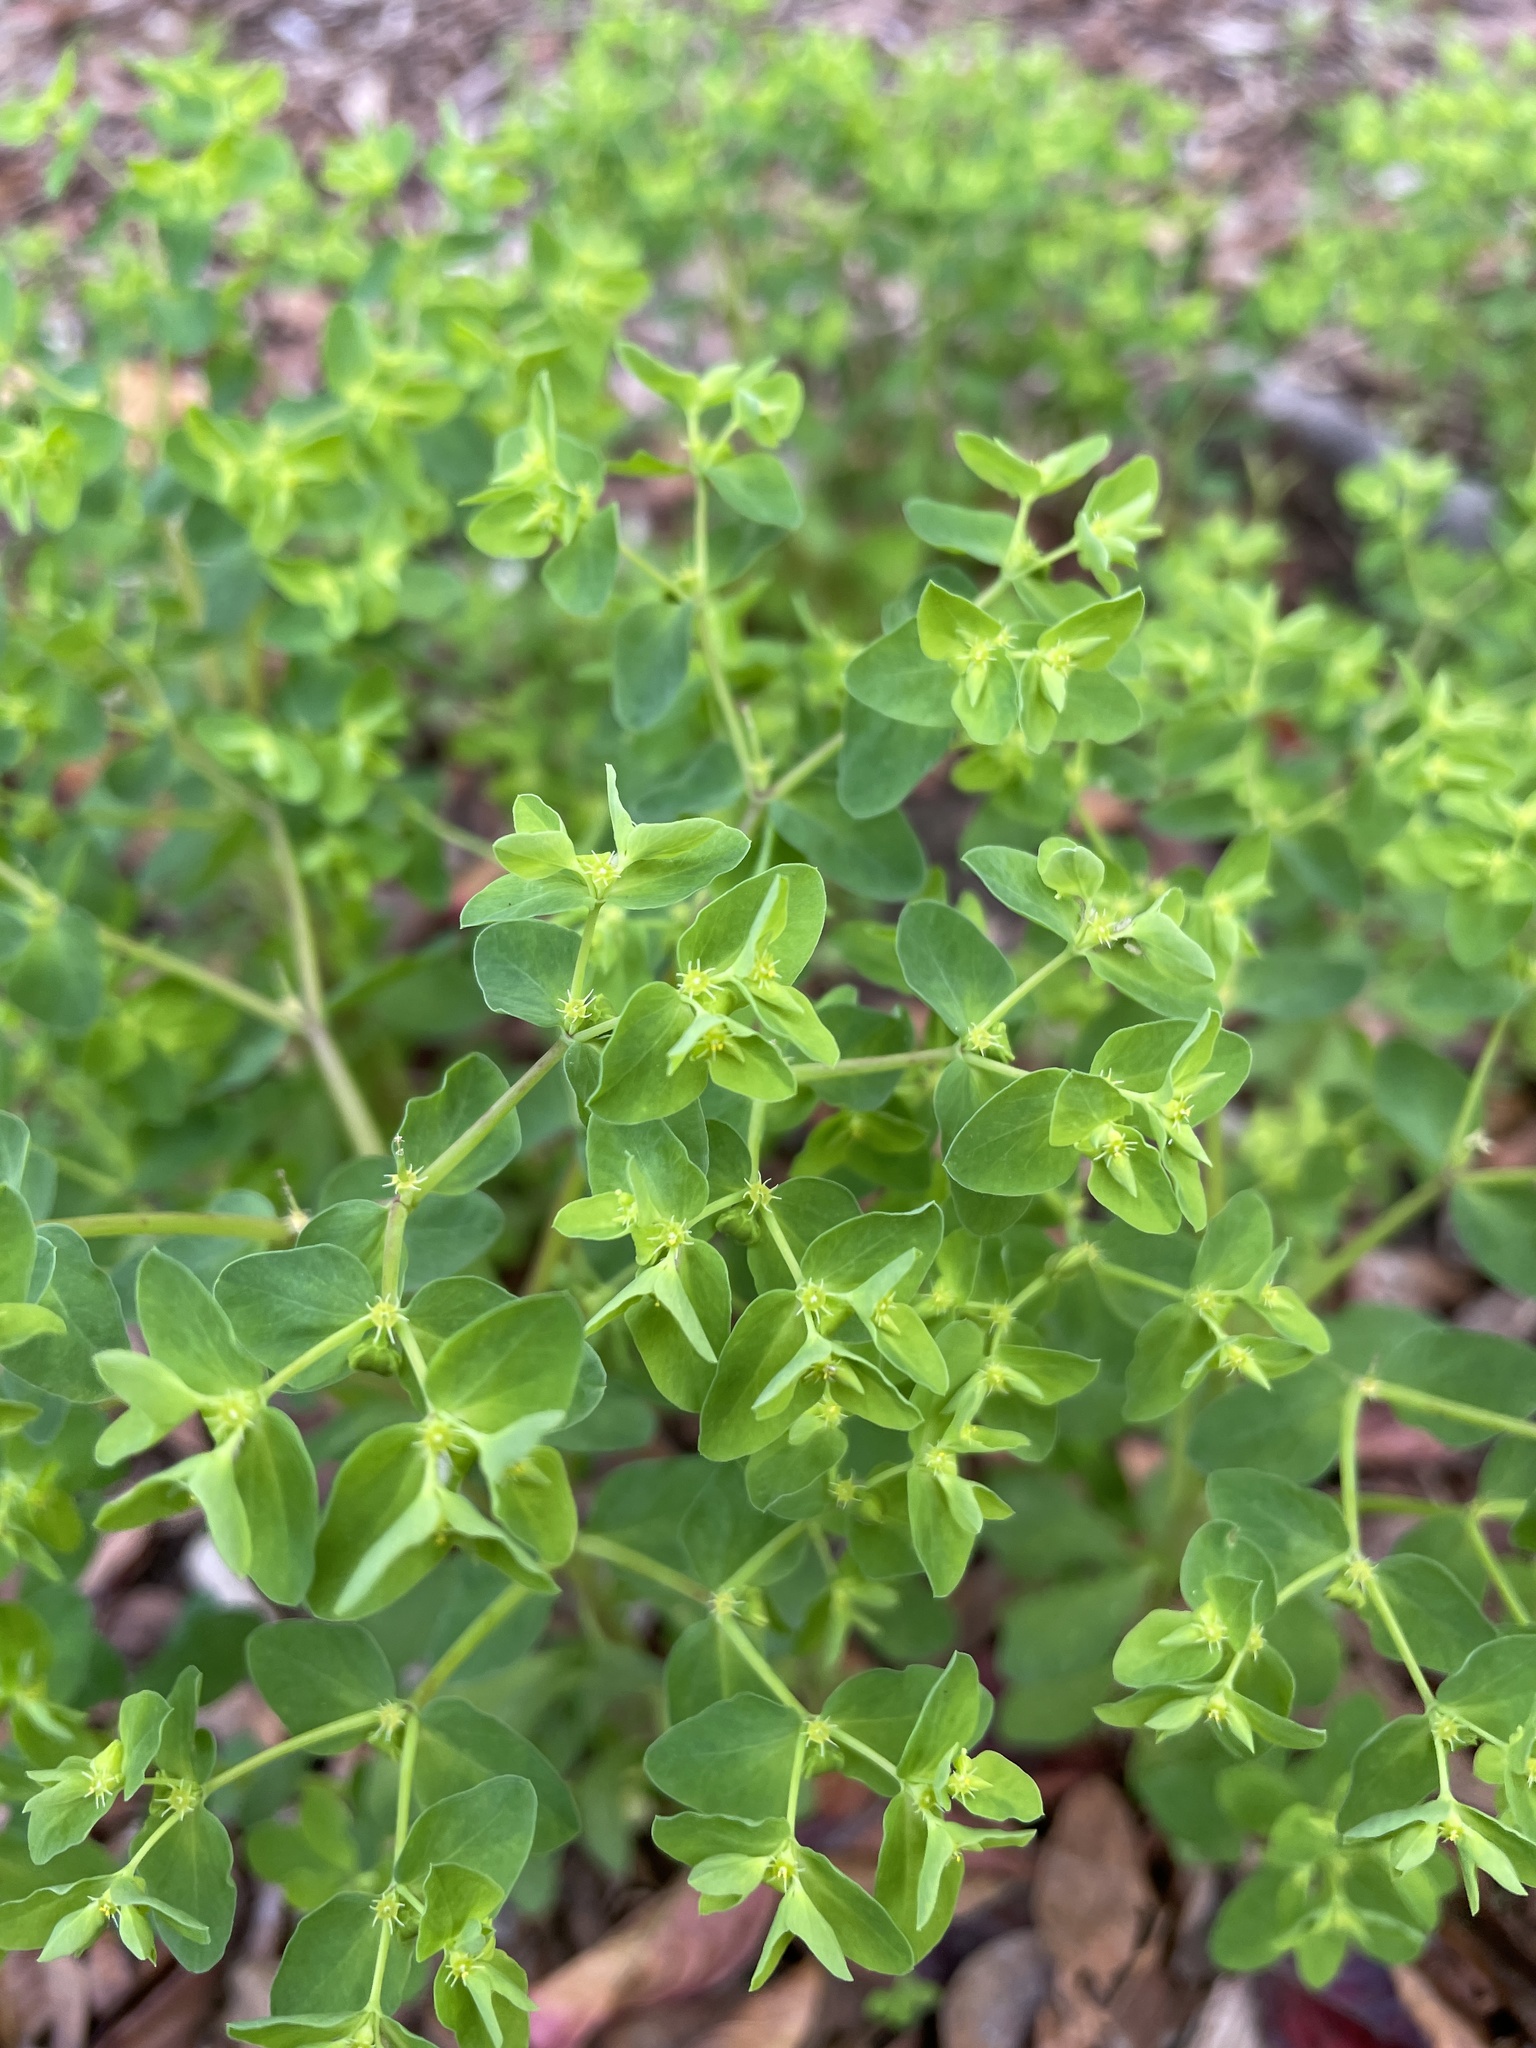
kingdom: Plantae
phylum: Tracheophyta
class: Magnoliopsida
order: Malpighiales
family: Euphorbiaceae
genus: Euphorbia
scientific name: Euphorbia peplus
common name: Petty spurge
